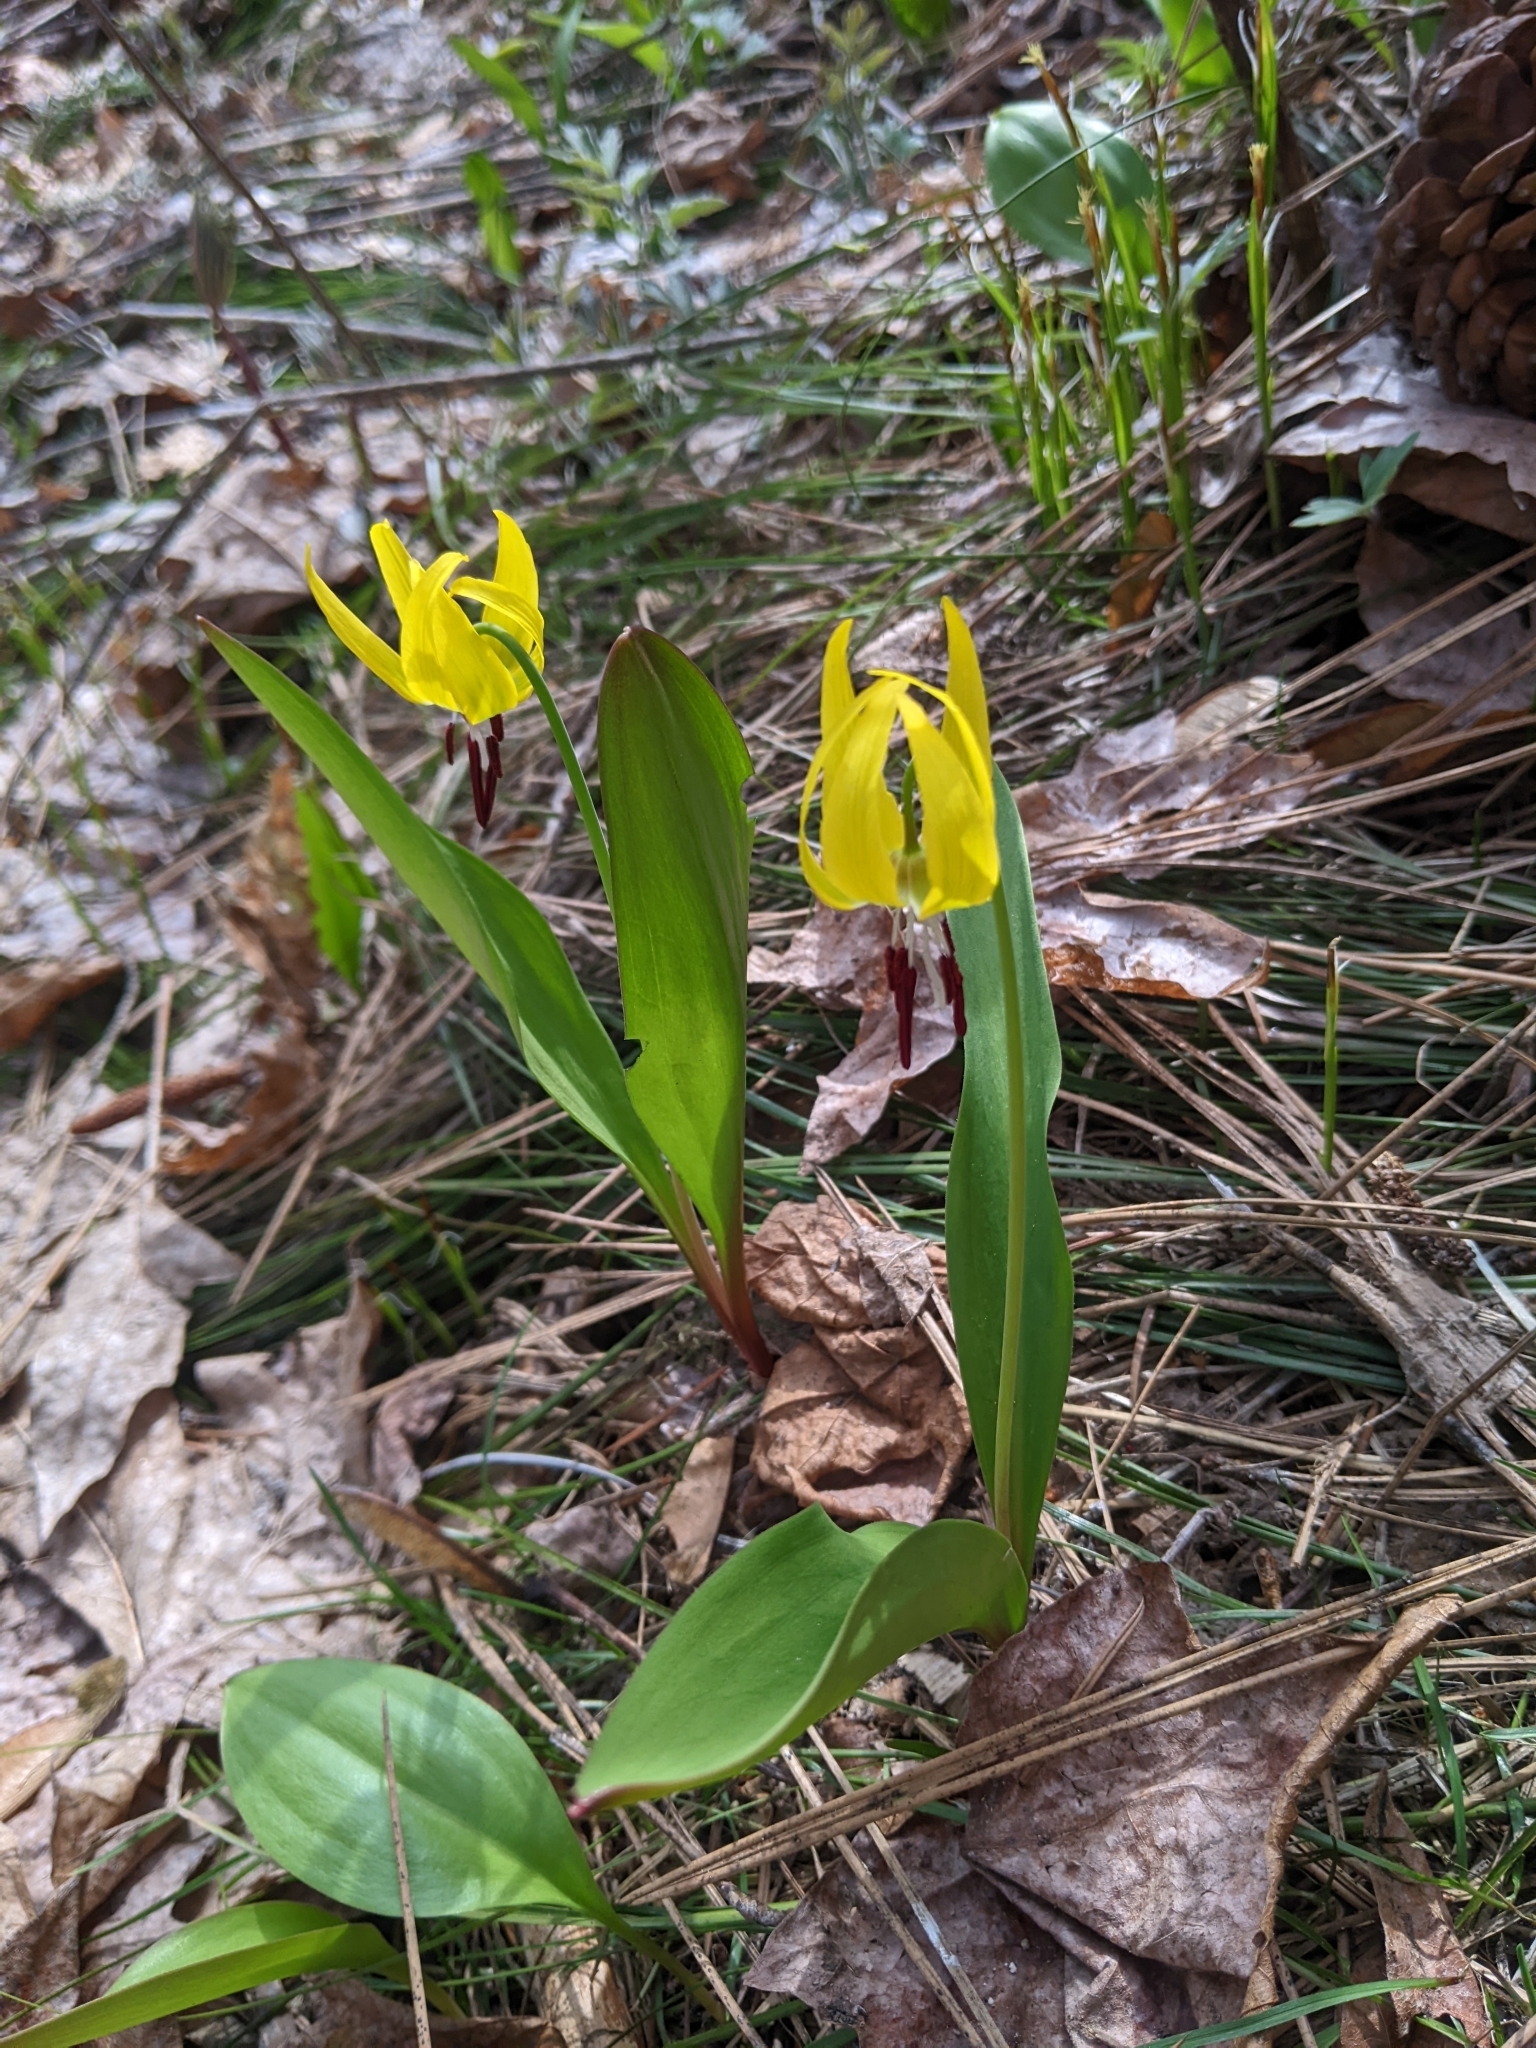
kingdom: Plantae
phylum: Tracheophyta
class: Liliopsida
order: Liliales
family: Liliaceae
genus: Erythronium
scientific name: Erythronium grandiflorum
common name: Avalanche-lily
